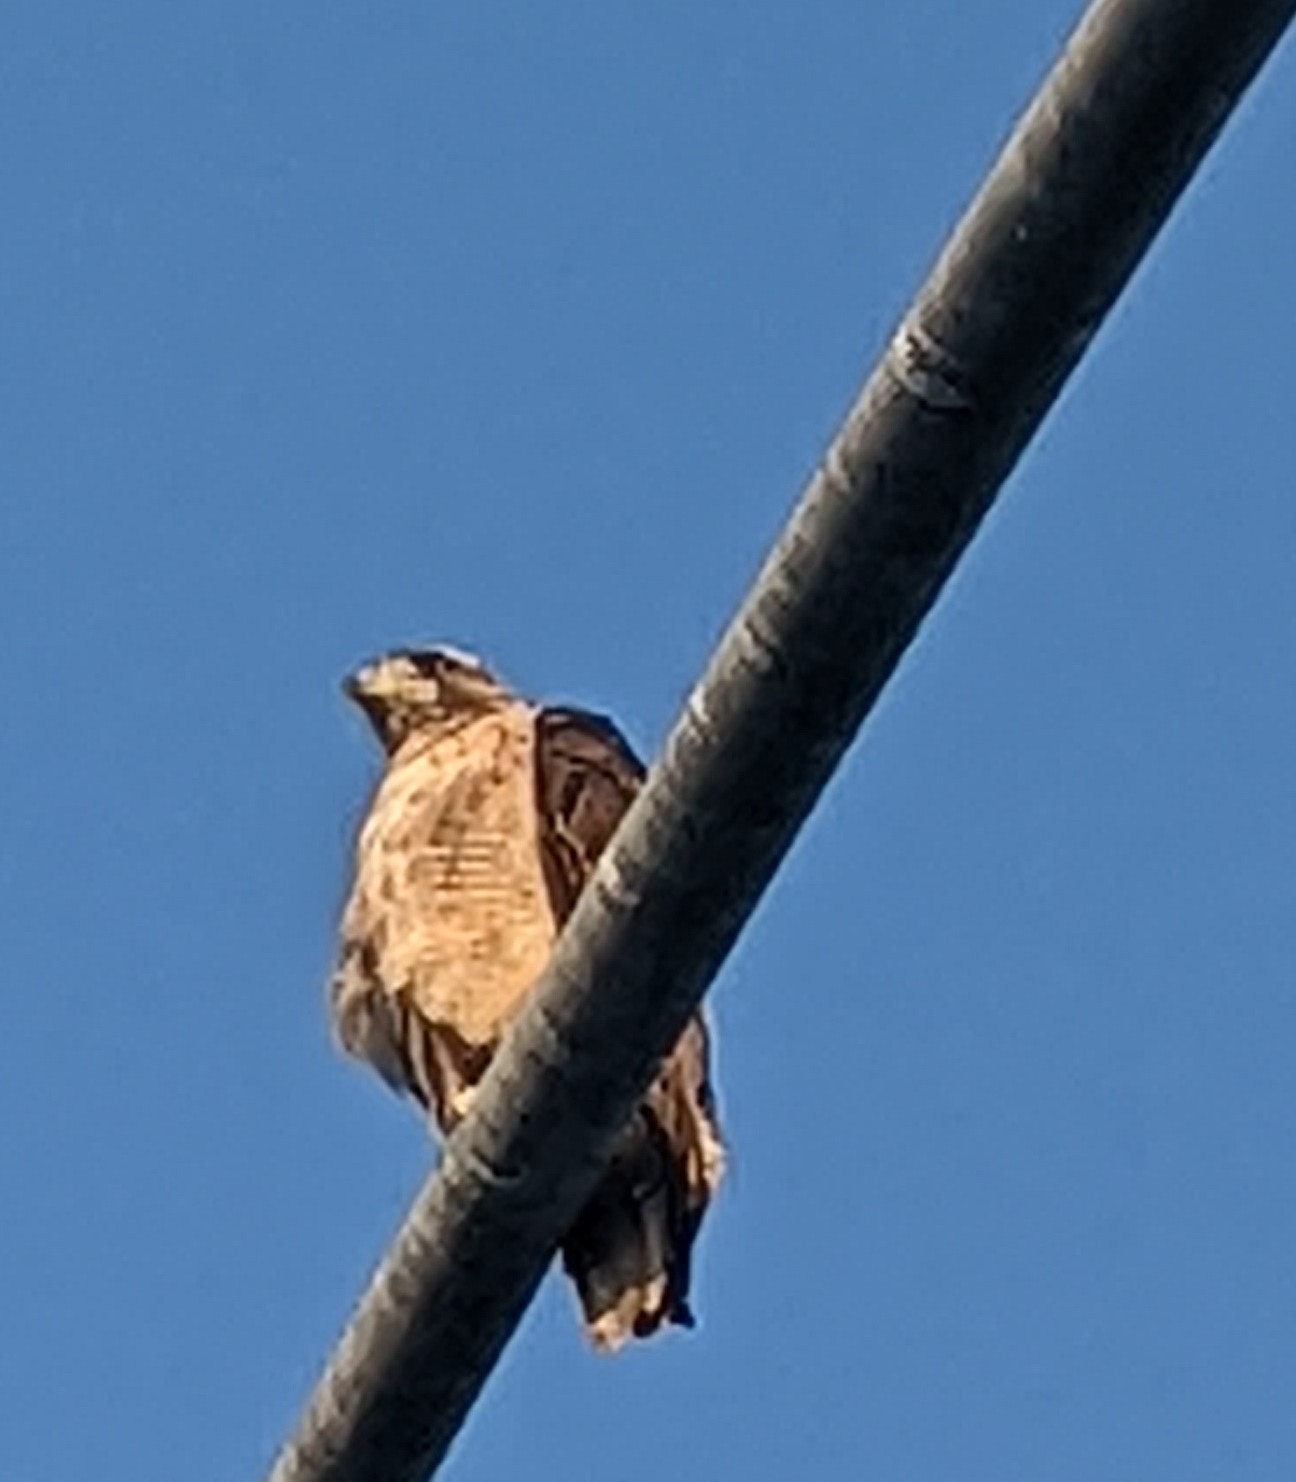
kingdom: Animalia
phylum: Chordata
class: Aves
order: Accipitriformes
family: Accipitridae
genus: Buteo
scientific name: Buteo jamaicensis
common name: Red-tailed hawk
